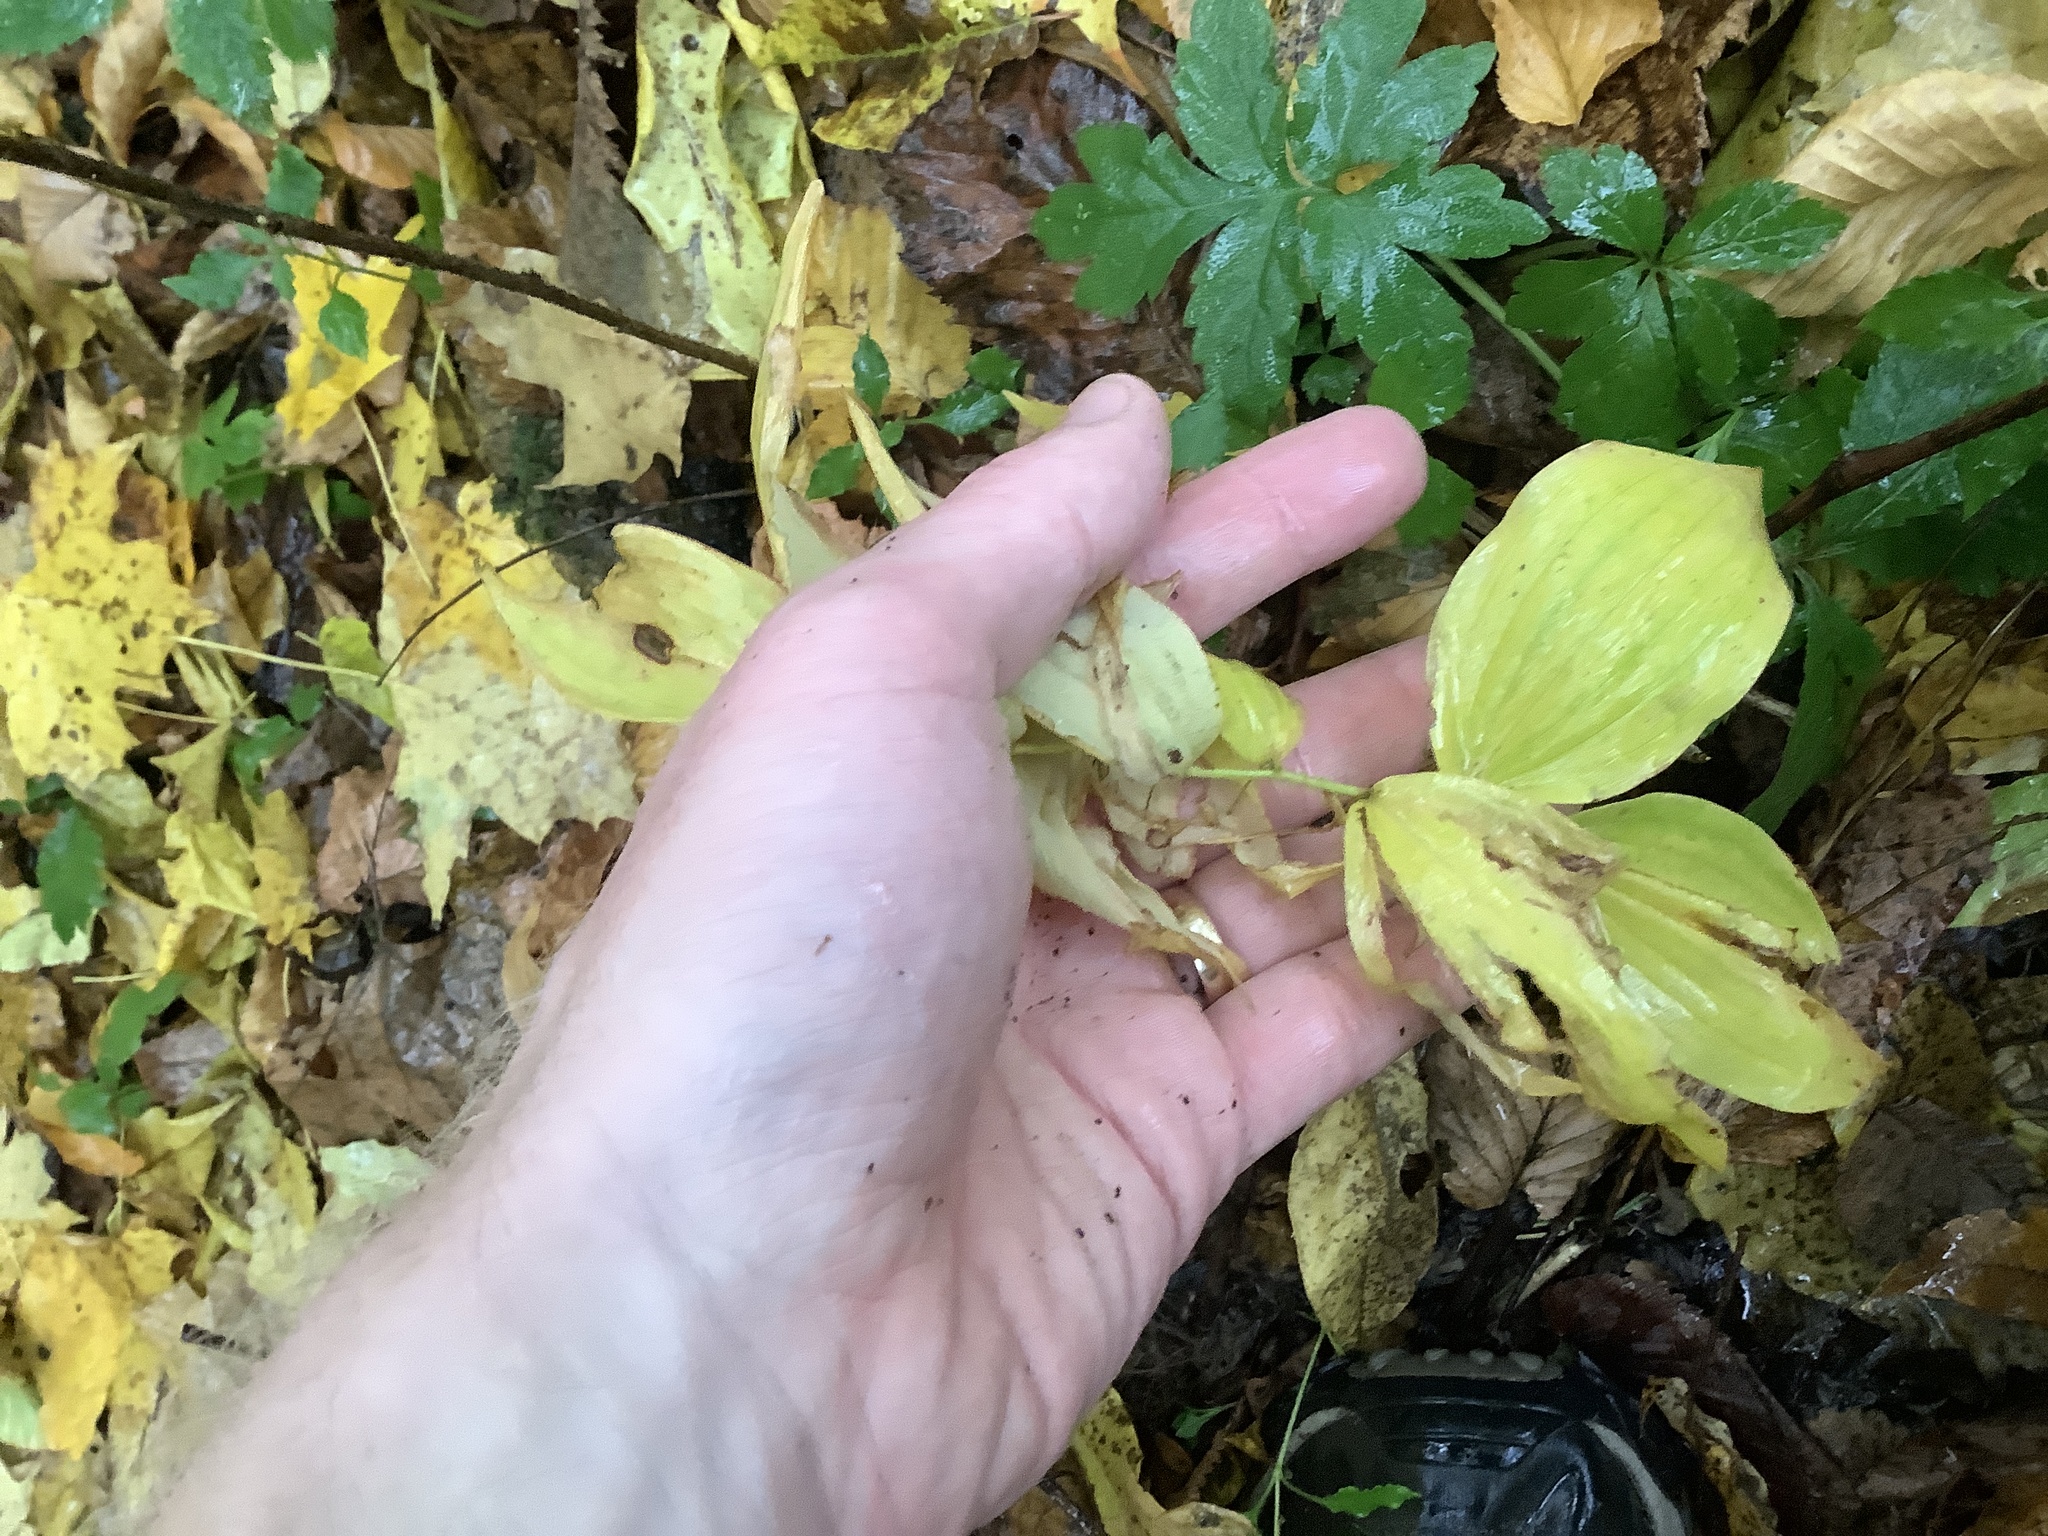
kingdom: Plantae
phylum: Tracheophyta
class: Liliopsida
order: Asparagales
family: Asparagaceae
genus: Polygonatum
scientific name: Polygonatum pubescens
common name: Downy solomon's seal
